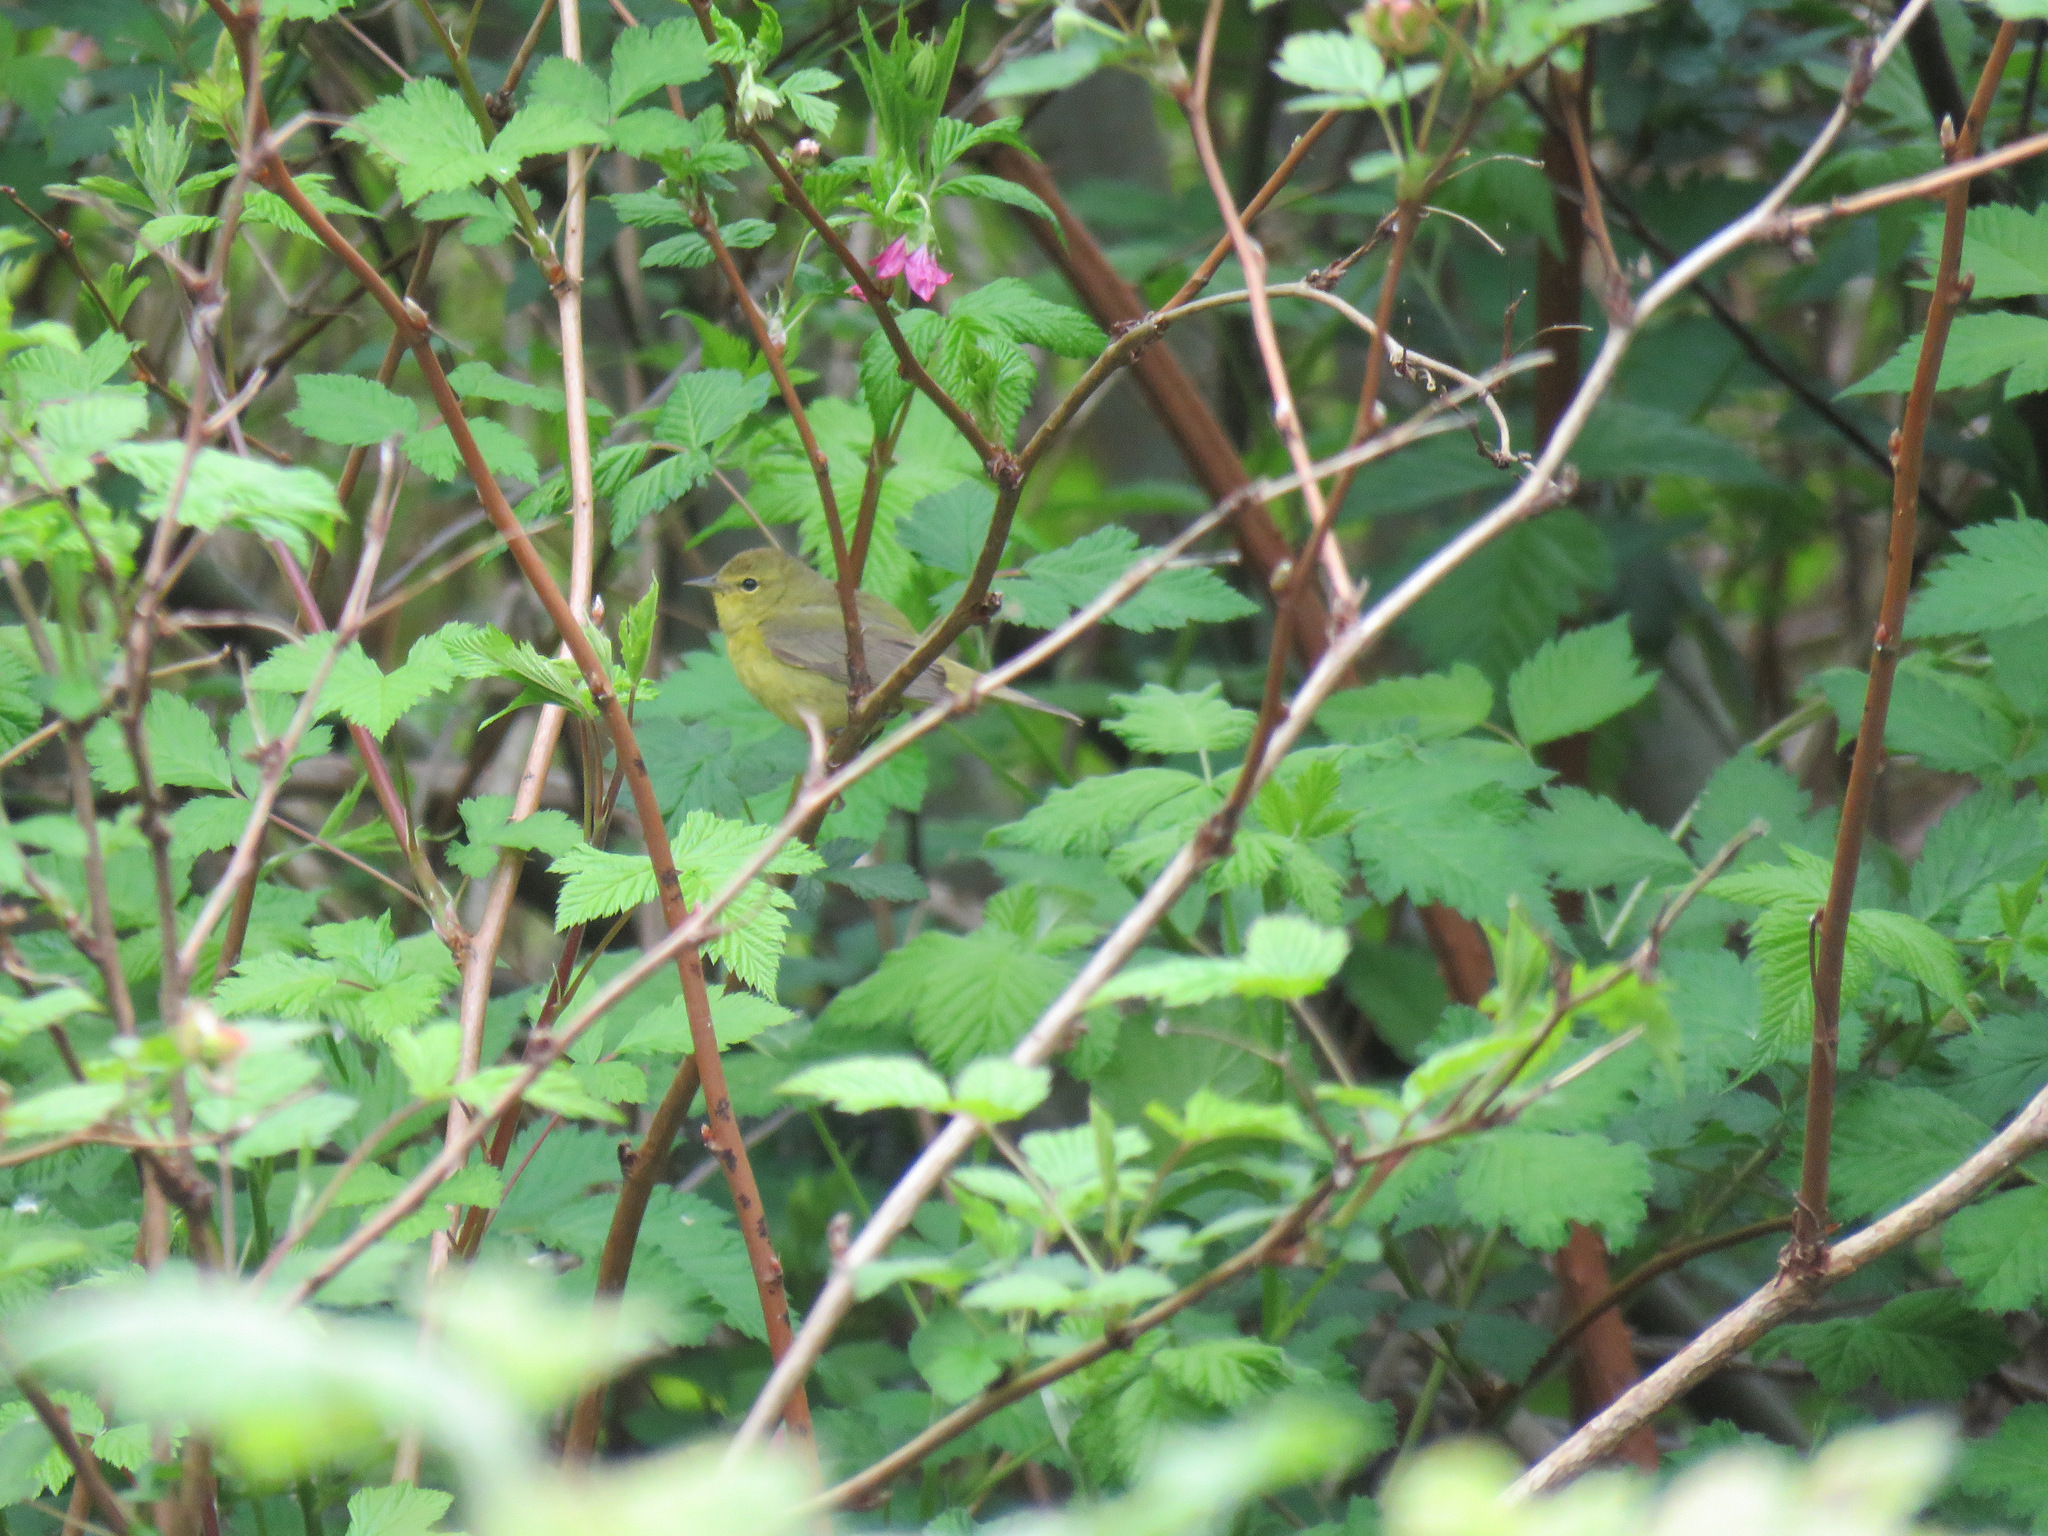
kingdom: Animalia
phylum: Chordata
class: Aves
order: Passeriformes
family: Parulidae
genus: Leiothlypis
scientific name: Leiothlypis celata
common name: Orange-crowned warbler
